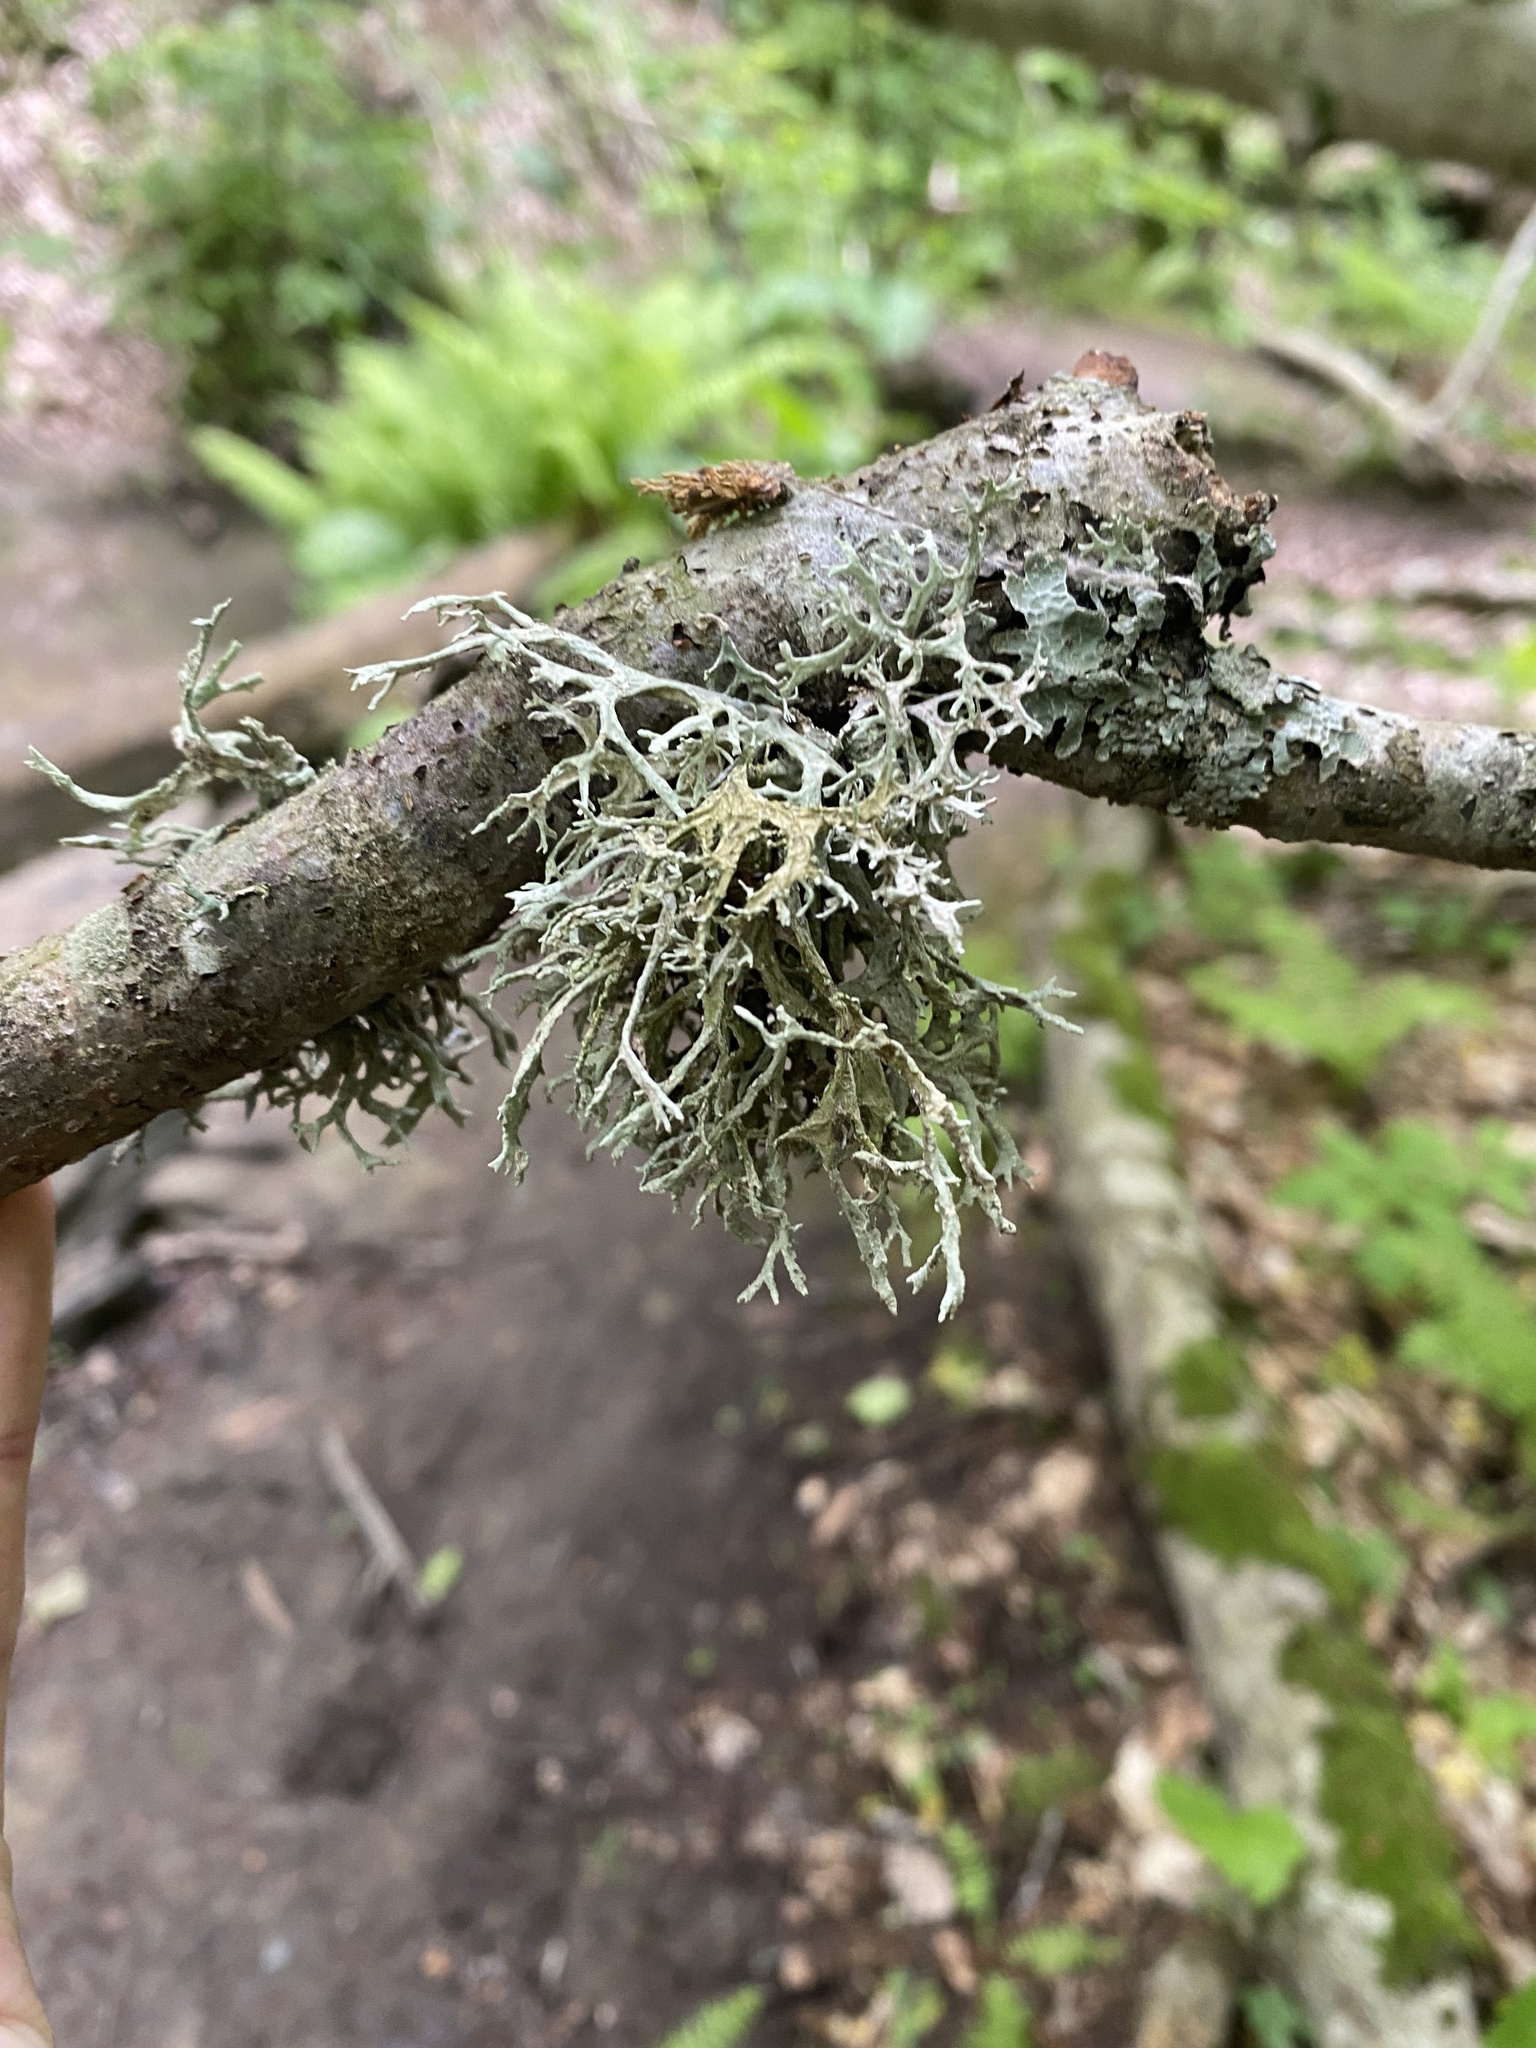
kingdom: Fungi
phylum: Ascomycota
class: Lecanoromycetes
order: Lecanorales
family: Parmeliaceae
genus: Evernia
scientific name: Evernia prunastri
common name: Oak moss
